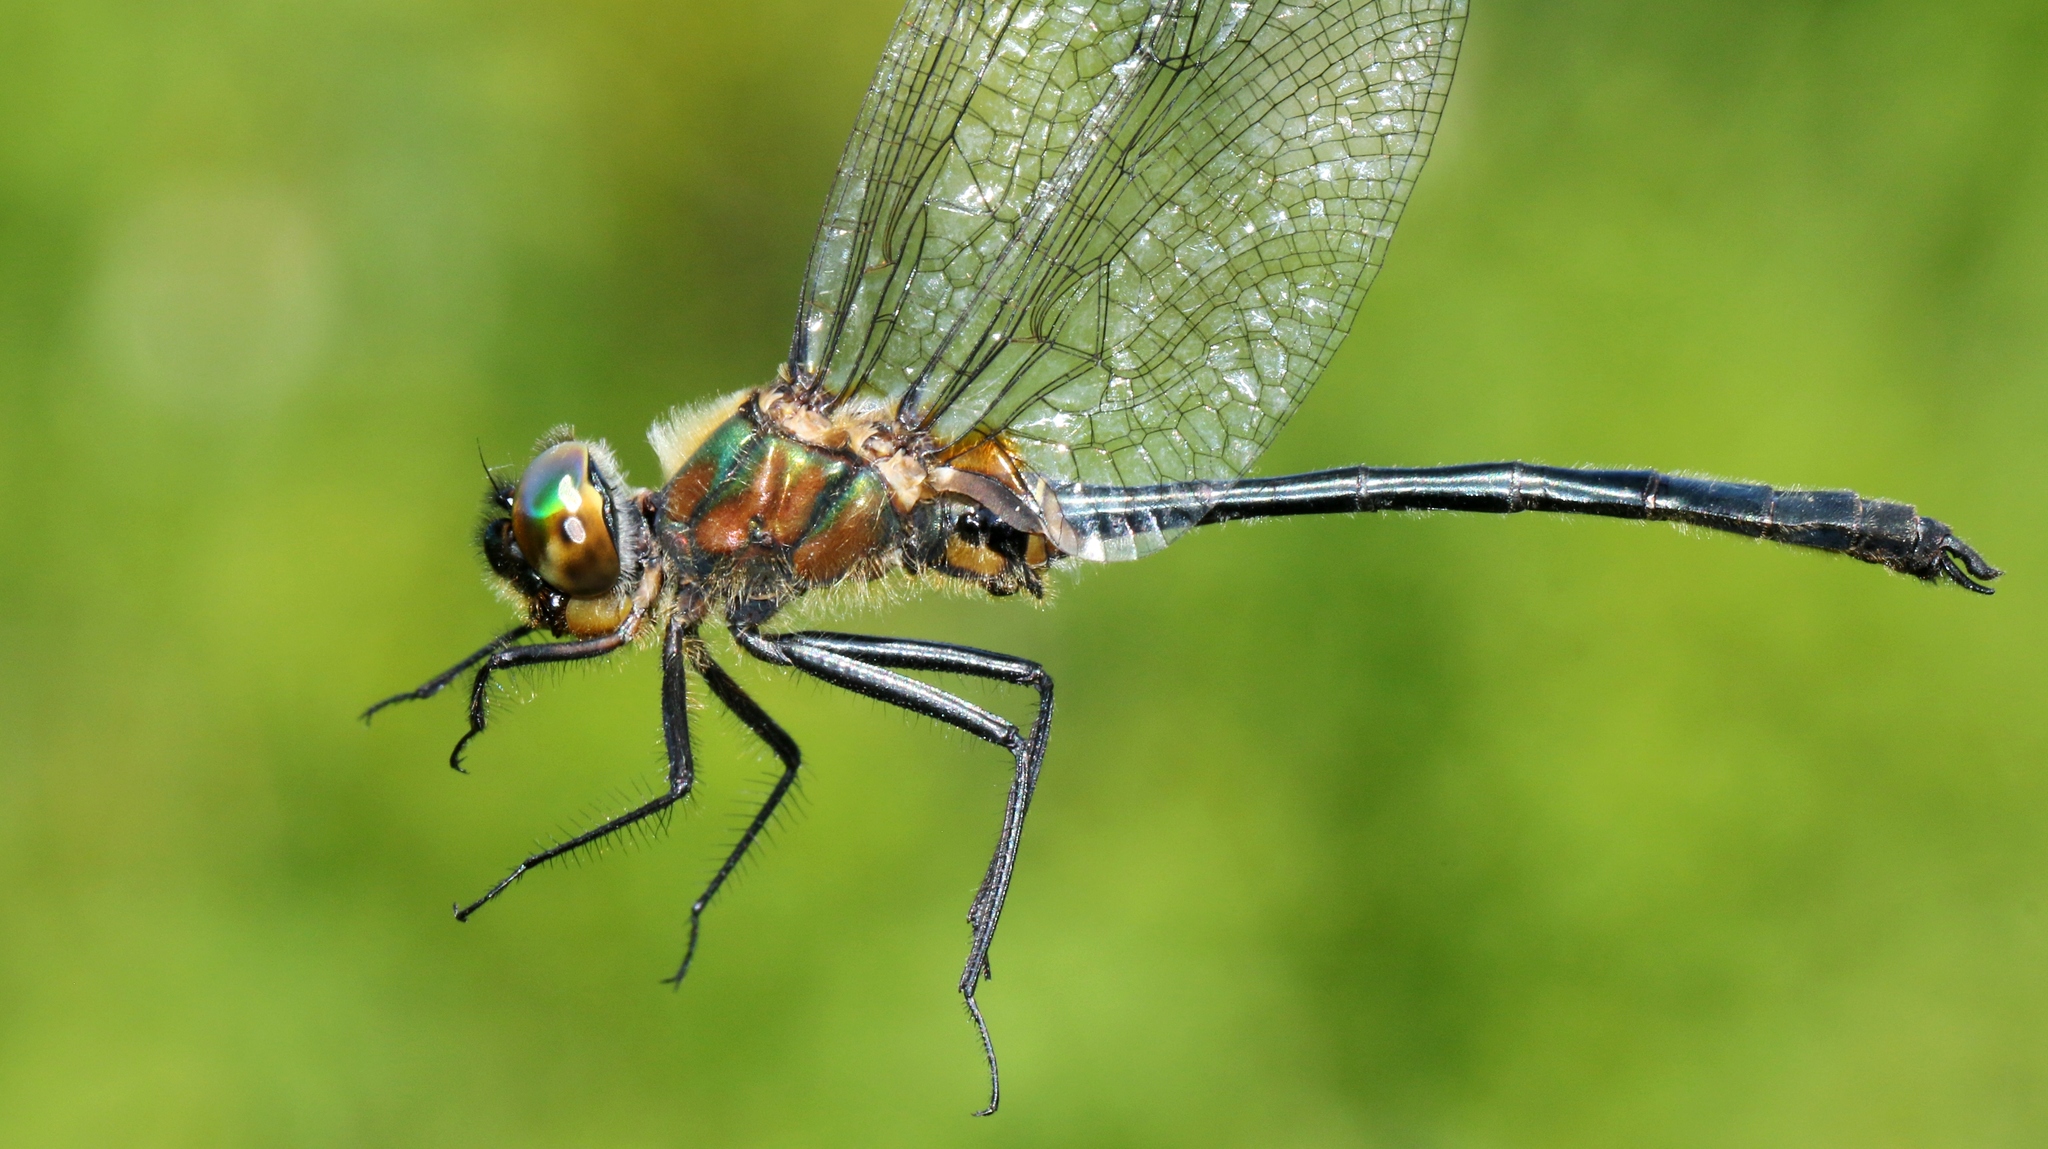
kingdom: Animalia
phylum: Arthropoda
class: Insecta
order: Odonata
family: Corduliidae
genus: Dorocordulia
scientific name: Dorocordulia libera
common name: Racket-tailed emerald
